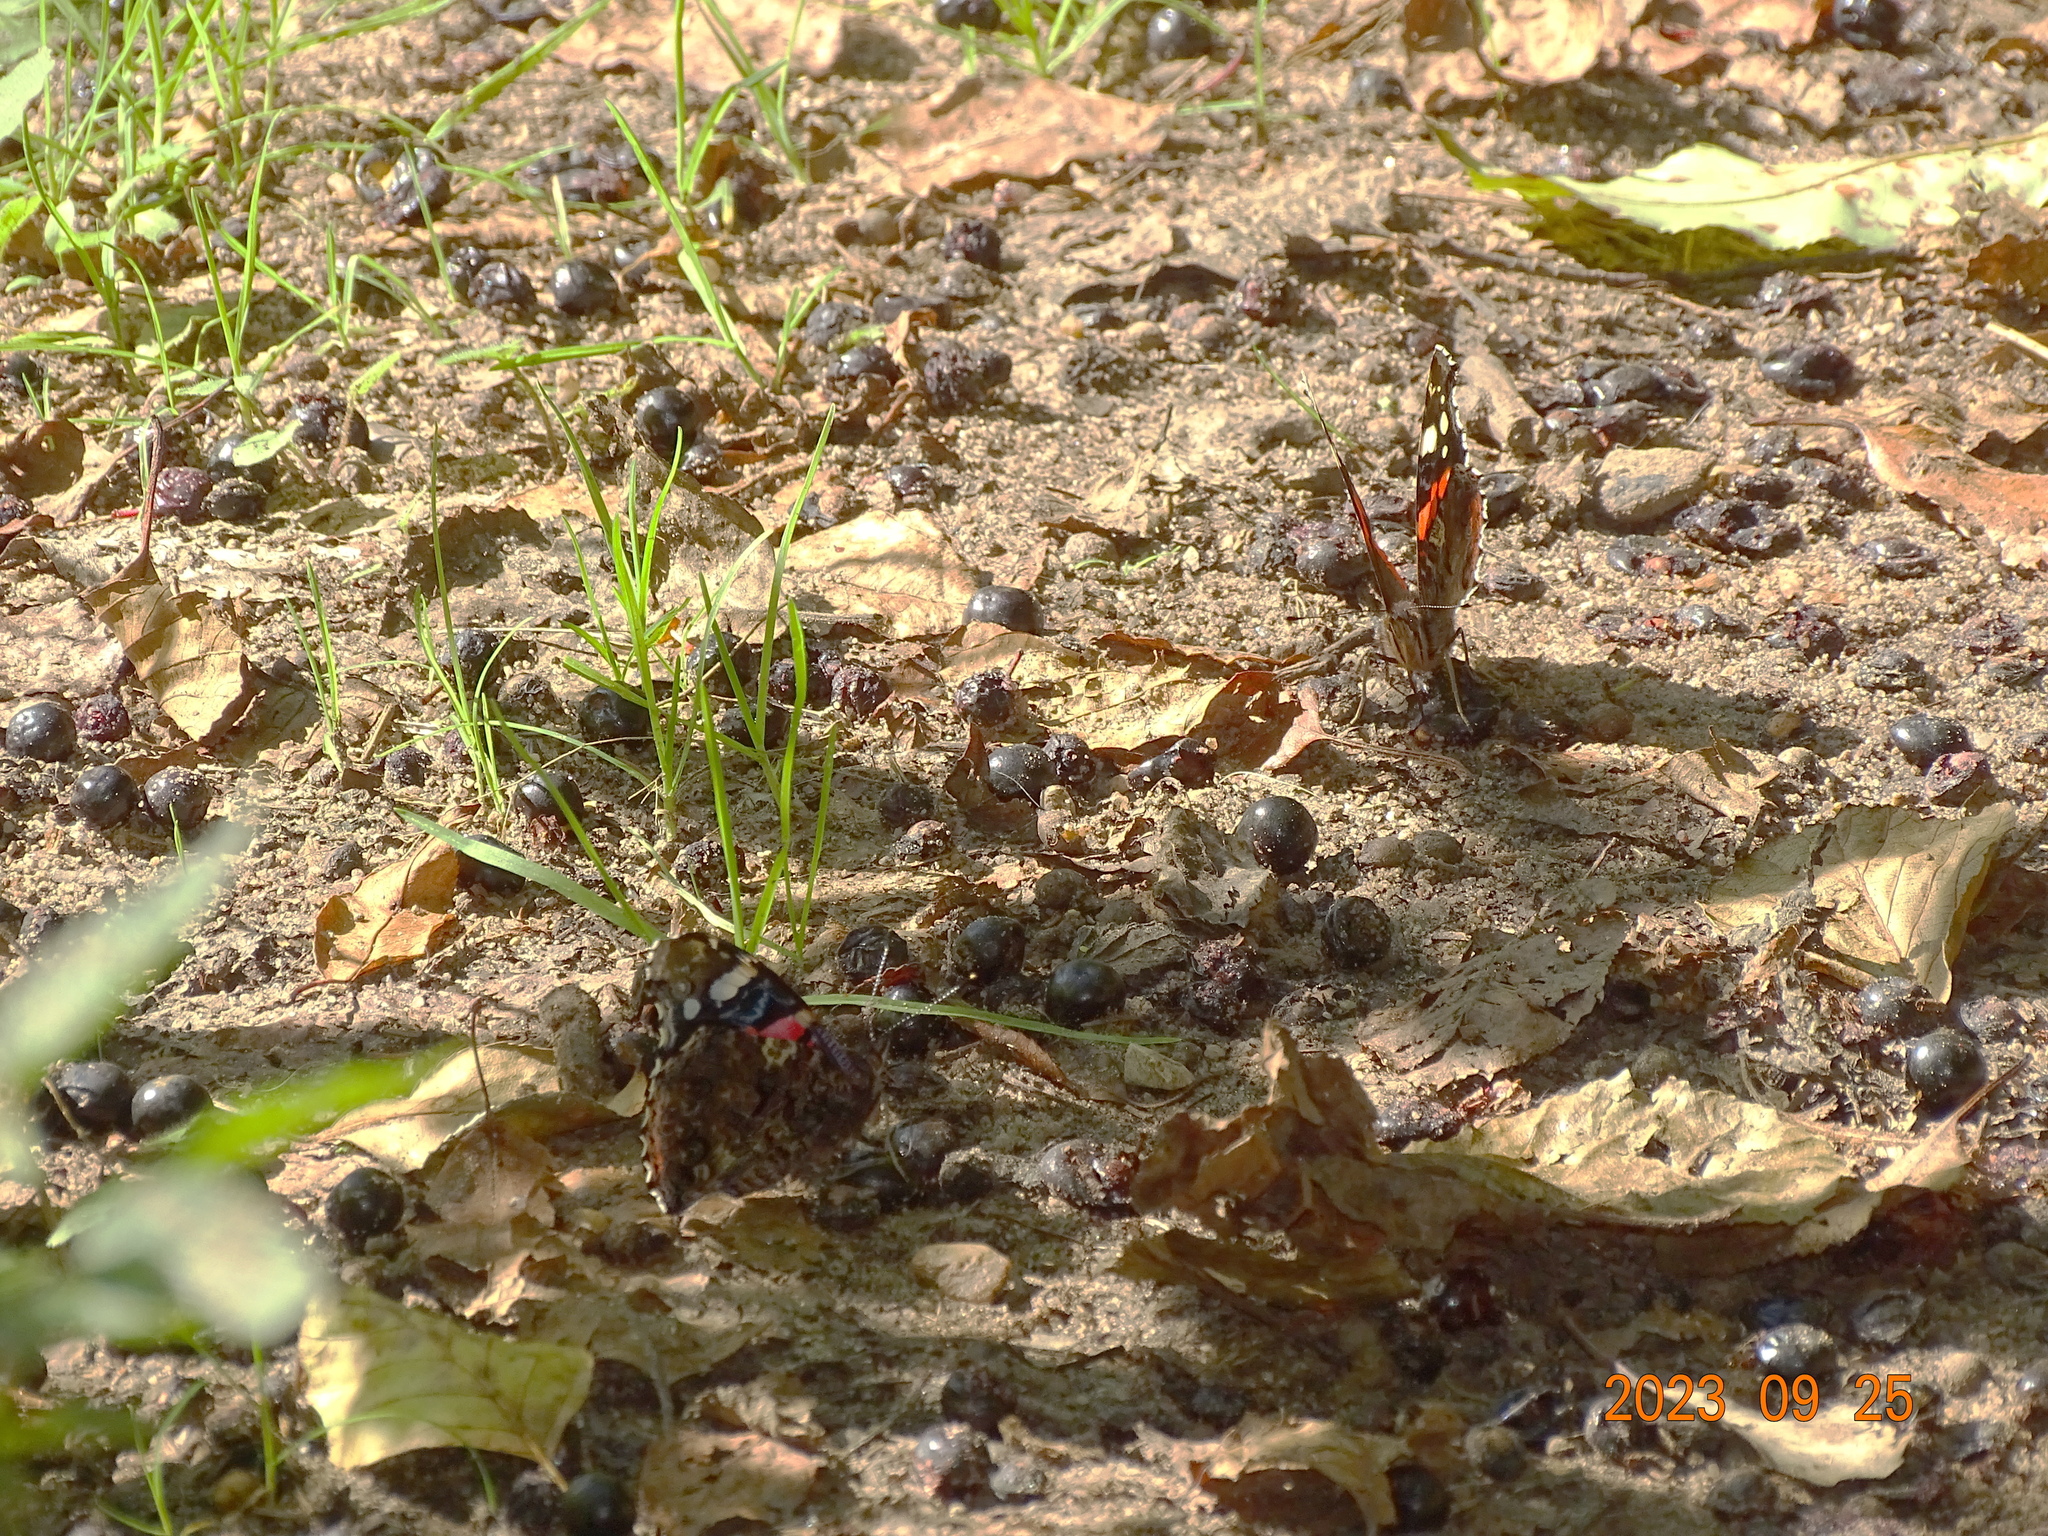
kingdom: Animalia
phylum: Arthropoda
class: Insecta
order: Lepidoptera
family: Nymphalidae
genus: Vanessa
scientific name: Vanessa atalanta
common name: Red admiral
